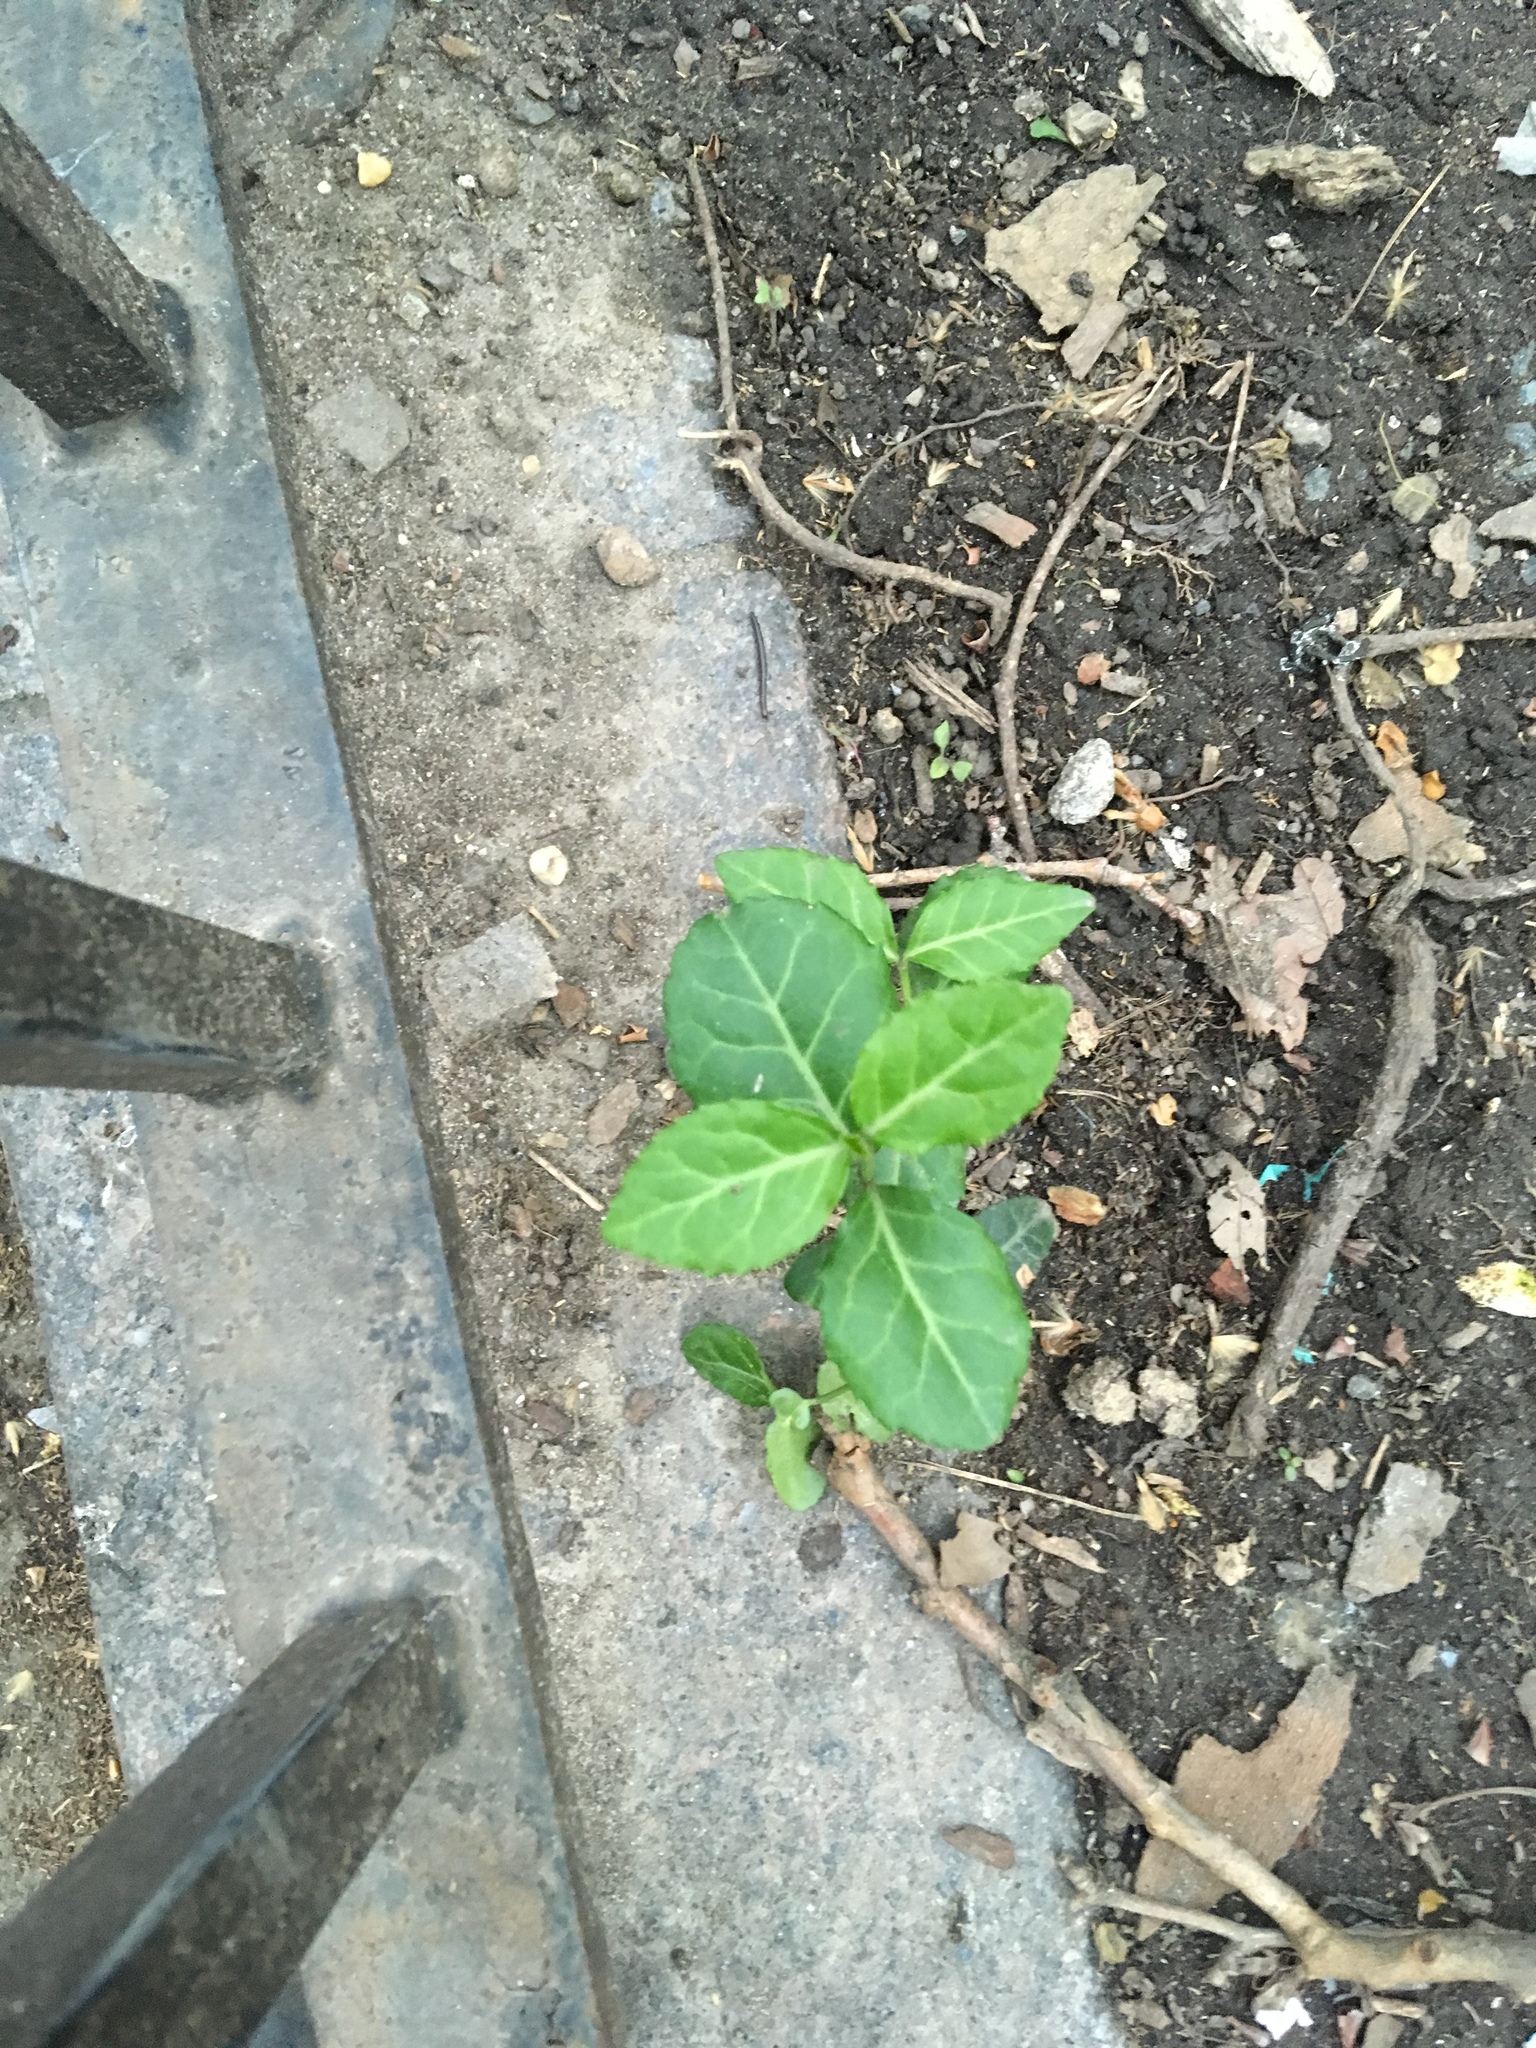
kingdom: Plantae
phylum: Tracheophyta
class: Magnoliopsida
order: Celastrales
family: Celastraceae
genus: Euonymus
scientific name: Euonymus fortunei
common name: Climbing euonymus
